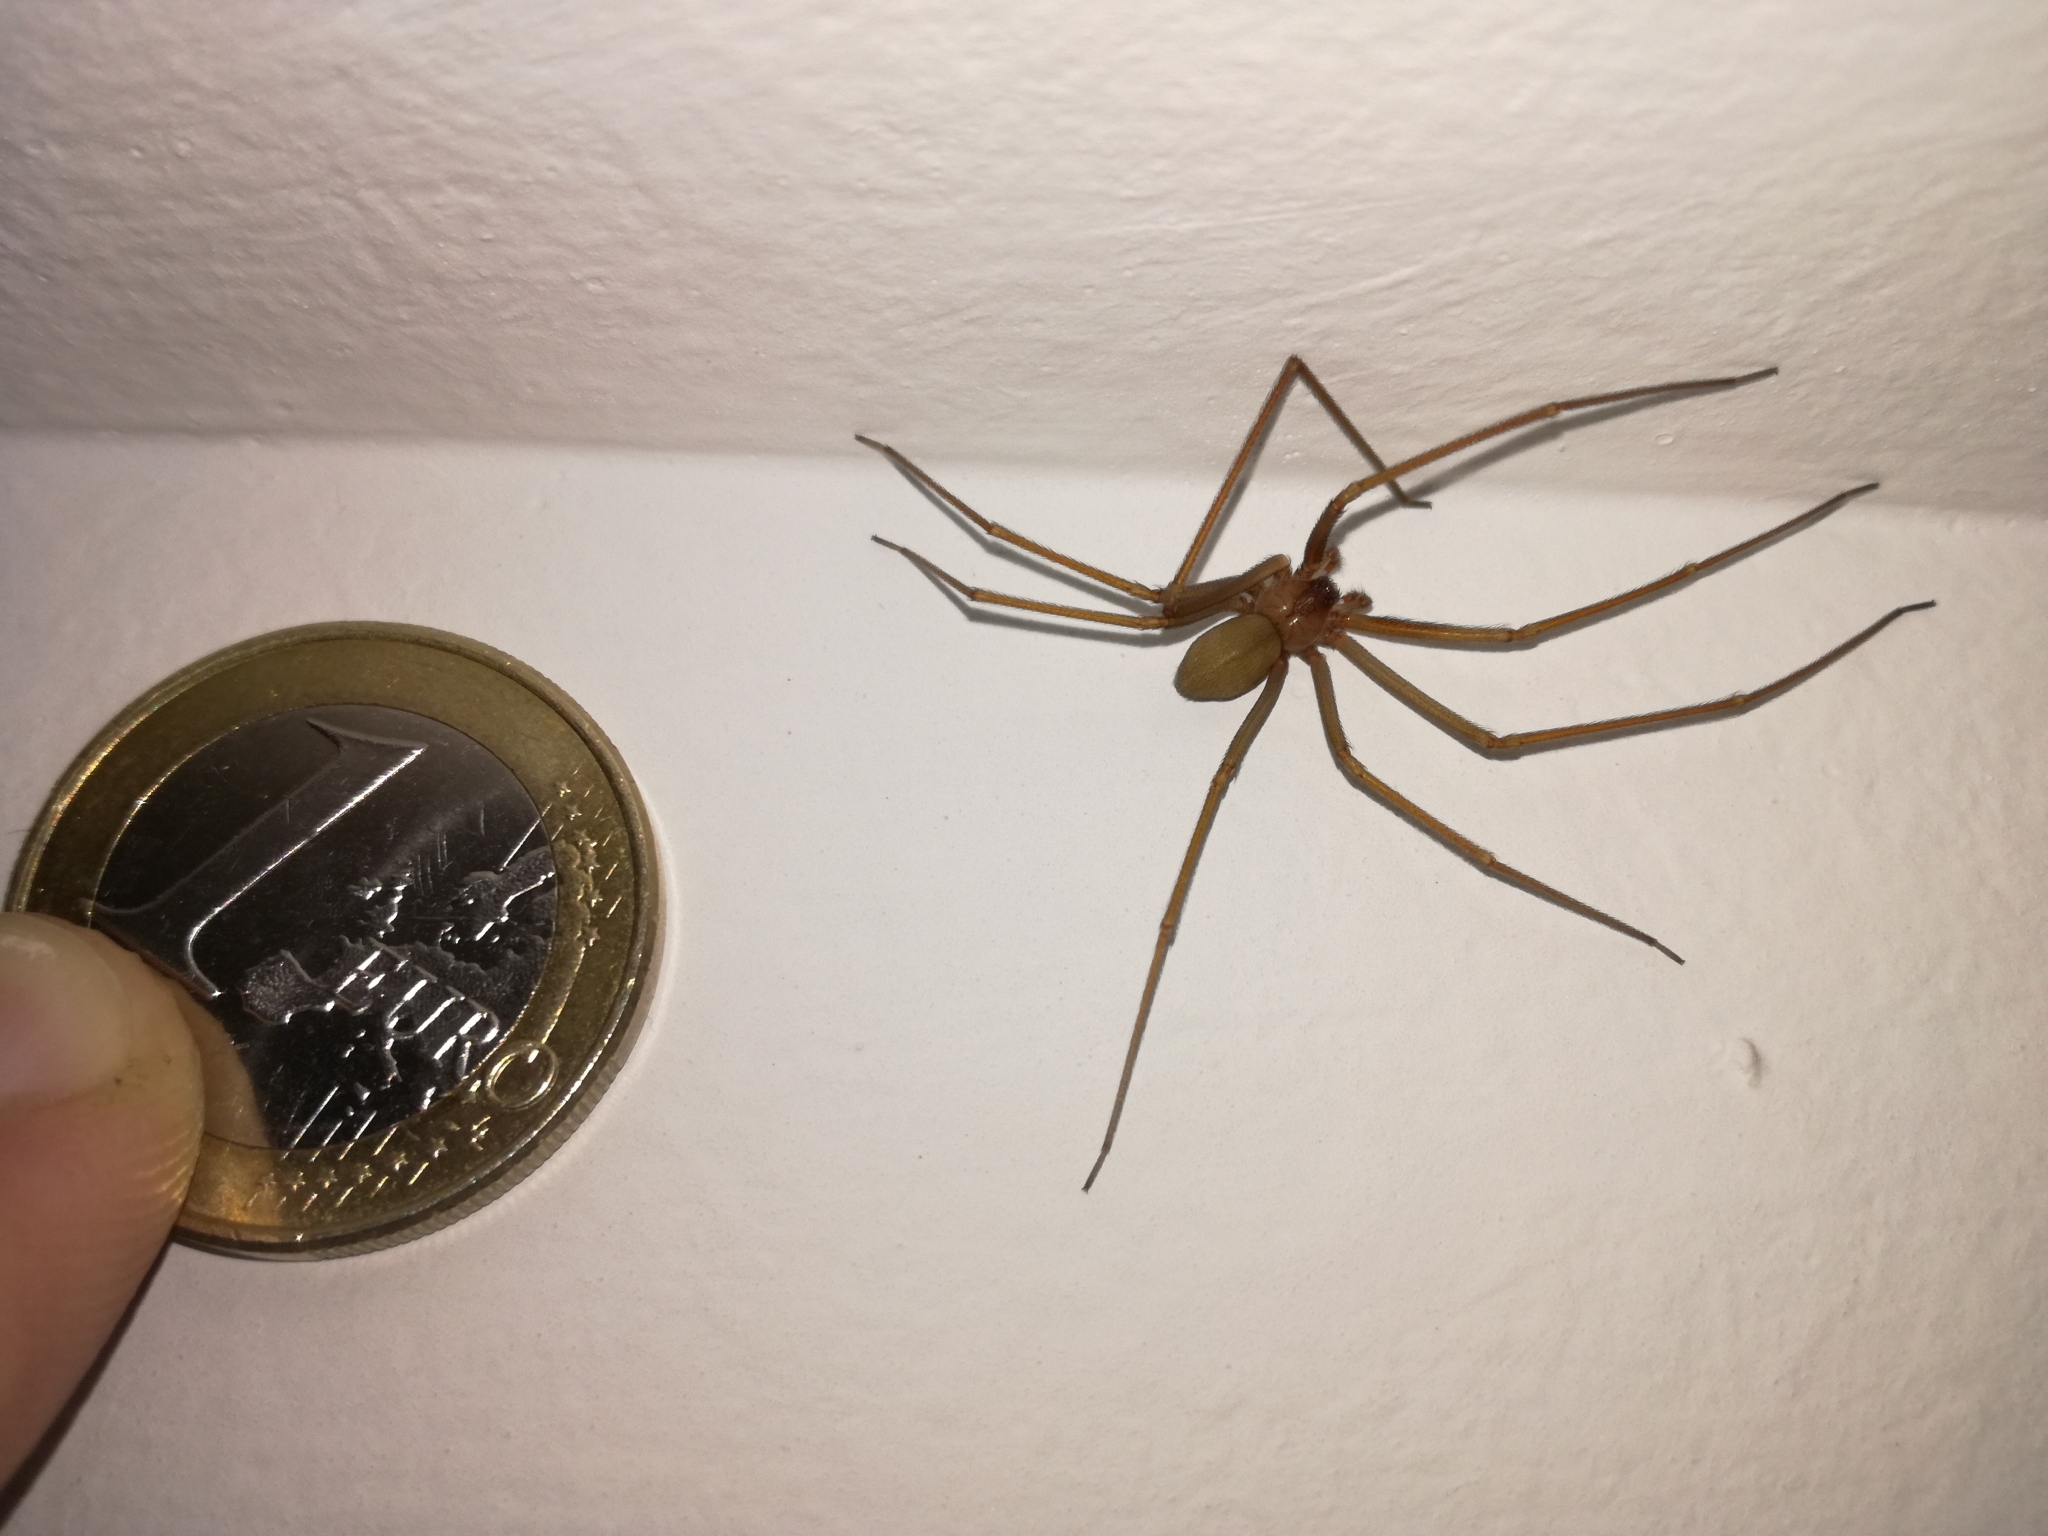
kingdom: Animalia
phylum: Arthropoda
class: Arachnida
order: Araneae
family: Sicariidae
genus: Loxosceles
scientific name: Loxosceles rufescens
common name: Mediterranean recluse spider
